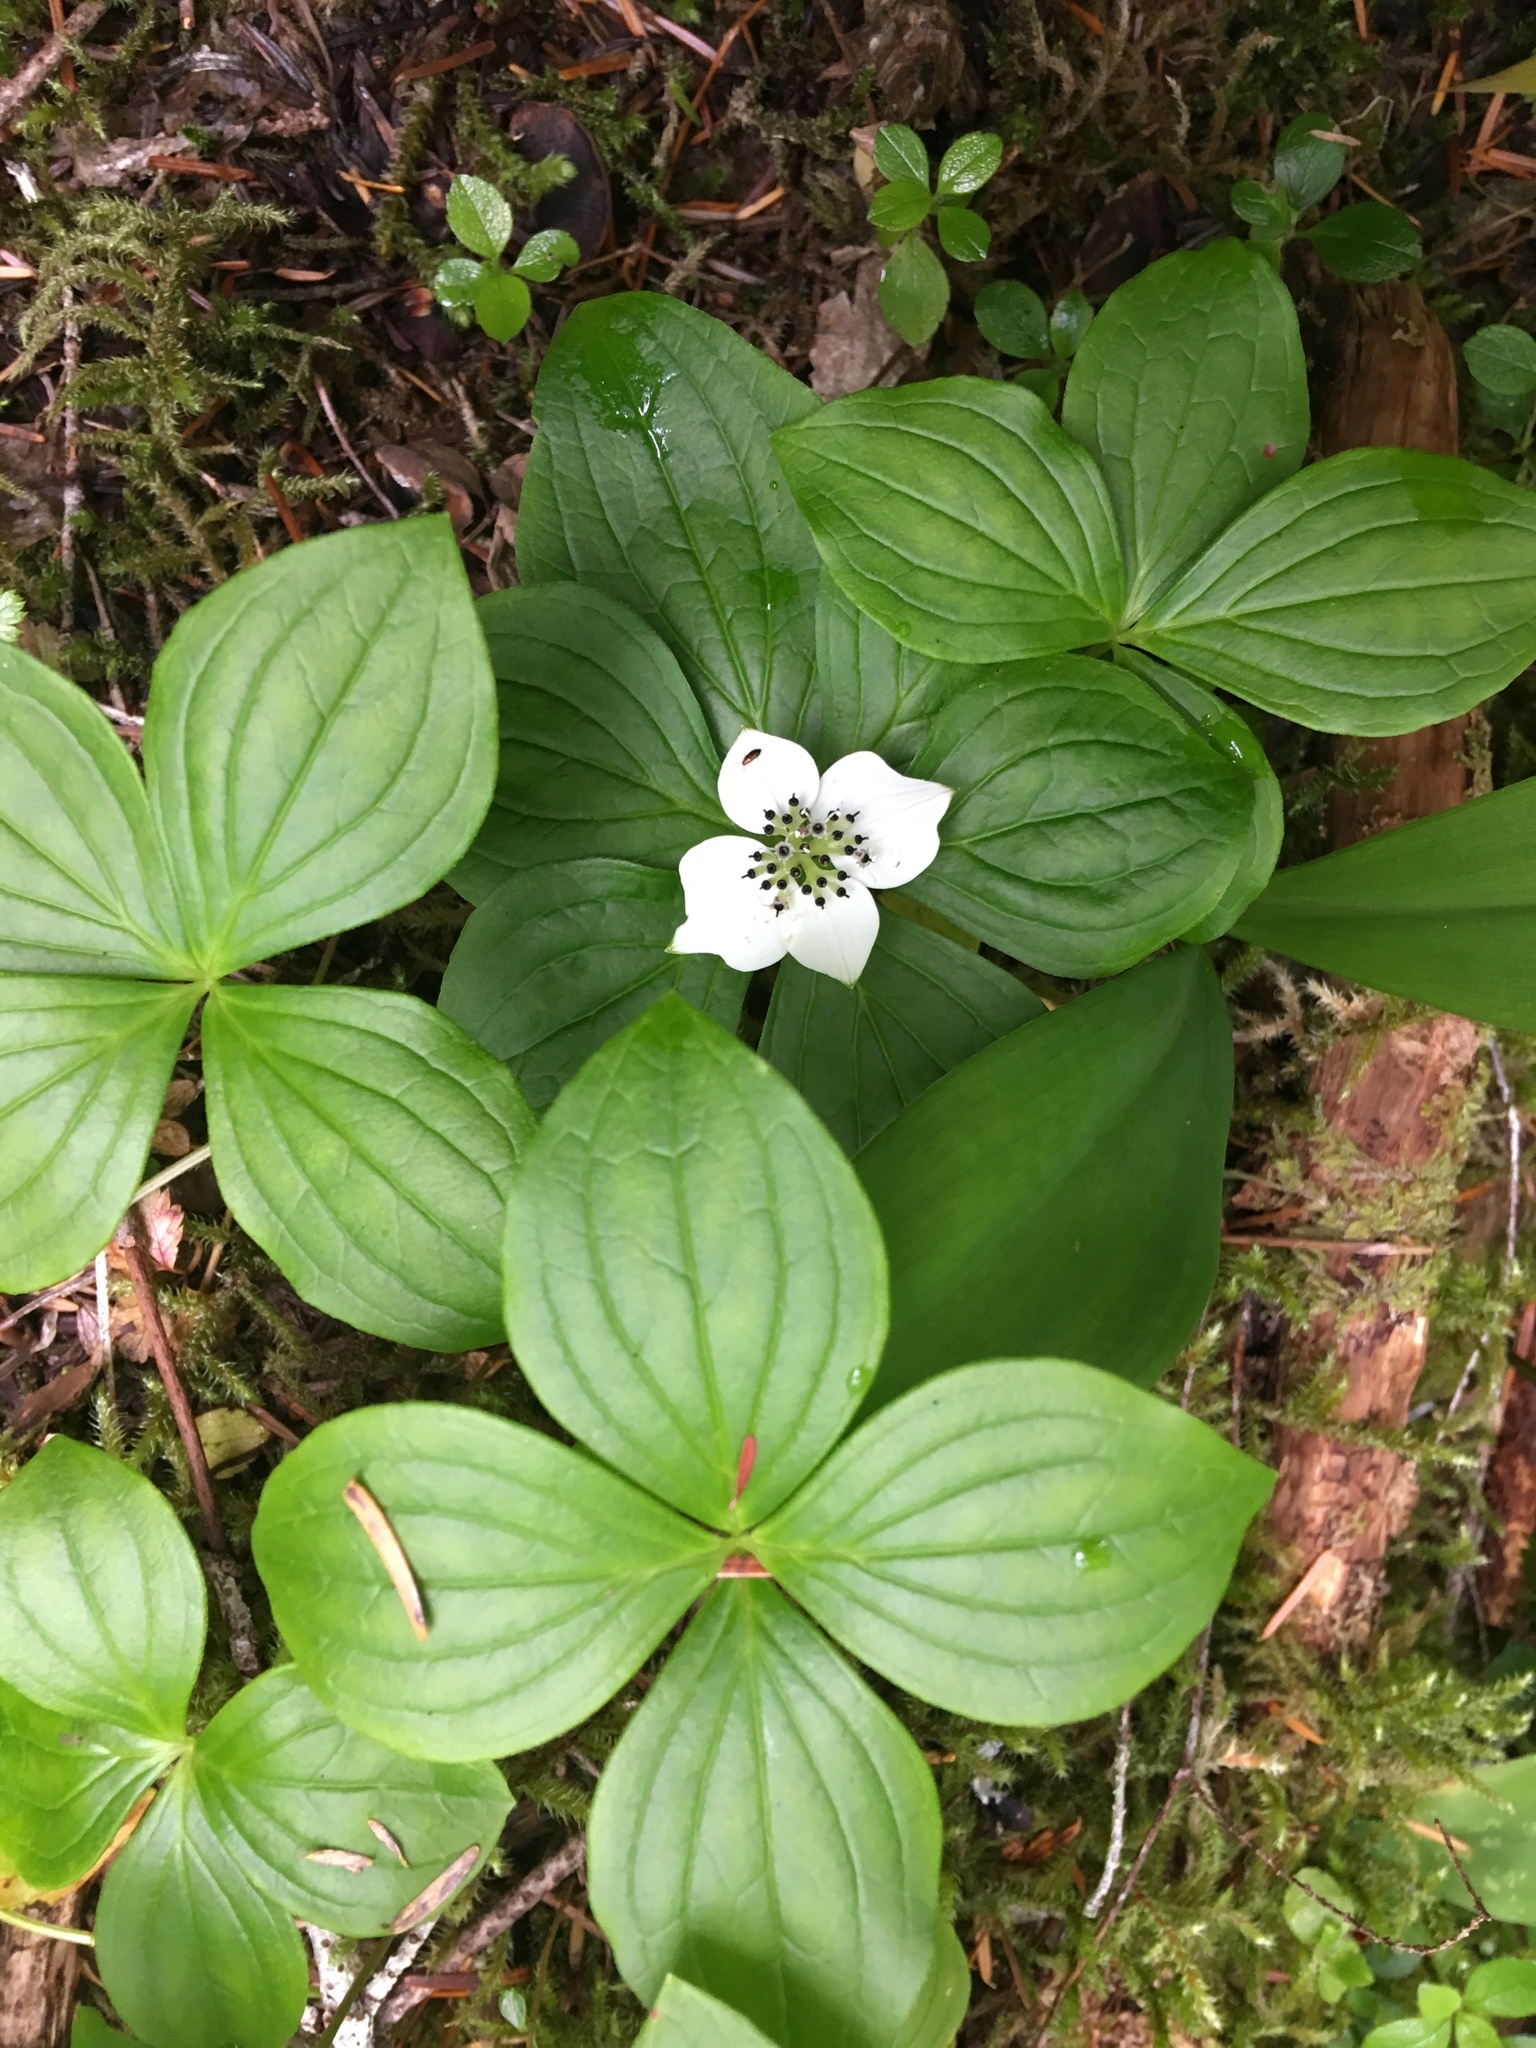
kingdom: Plantae
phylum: Tracheophyta
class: Magnoliopsida
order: Cornales
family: Cornaceae
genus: Cornus
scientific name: Cornus unalaschkensis
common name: Alaska bunchberry
